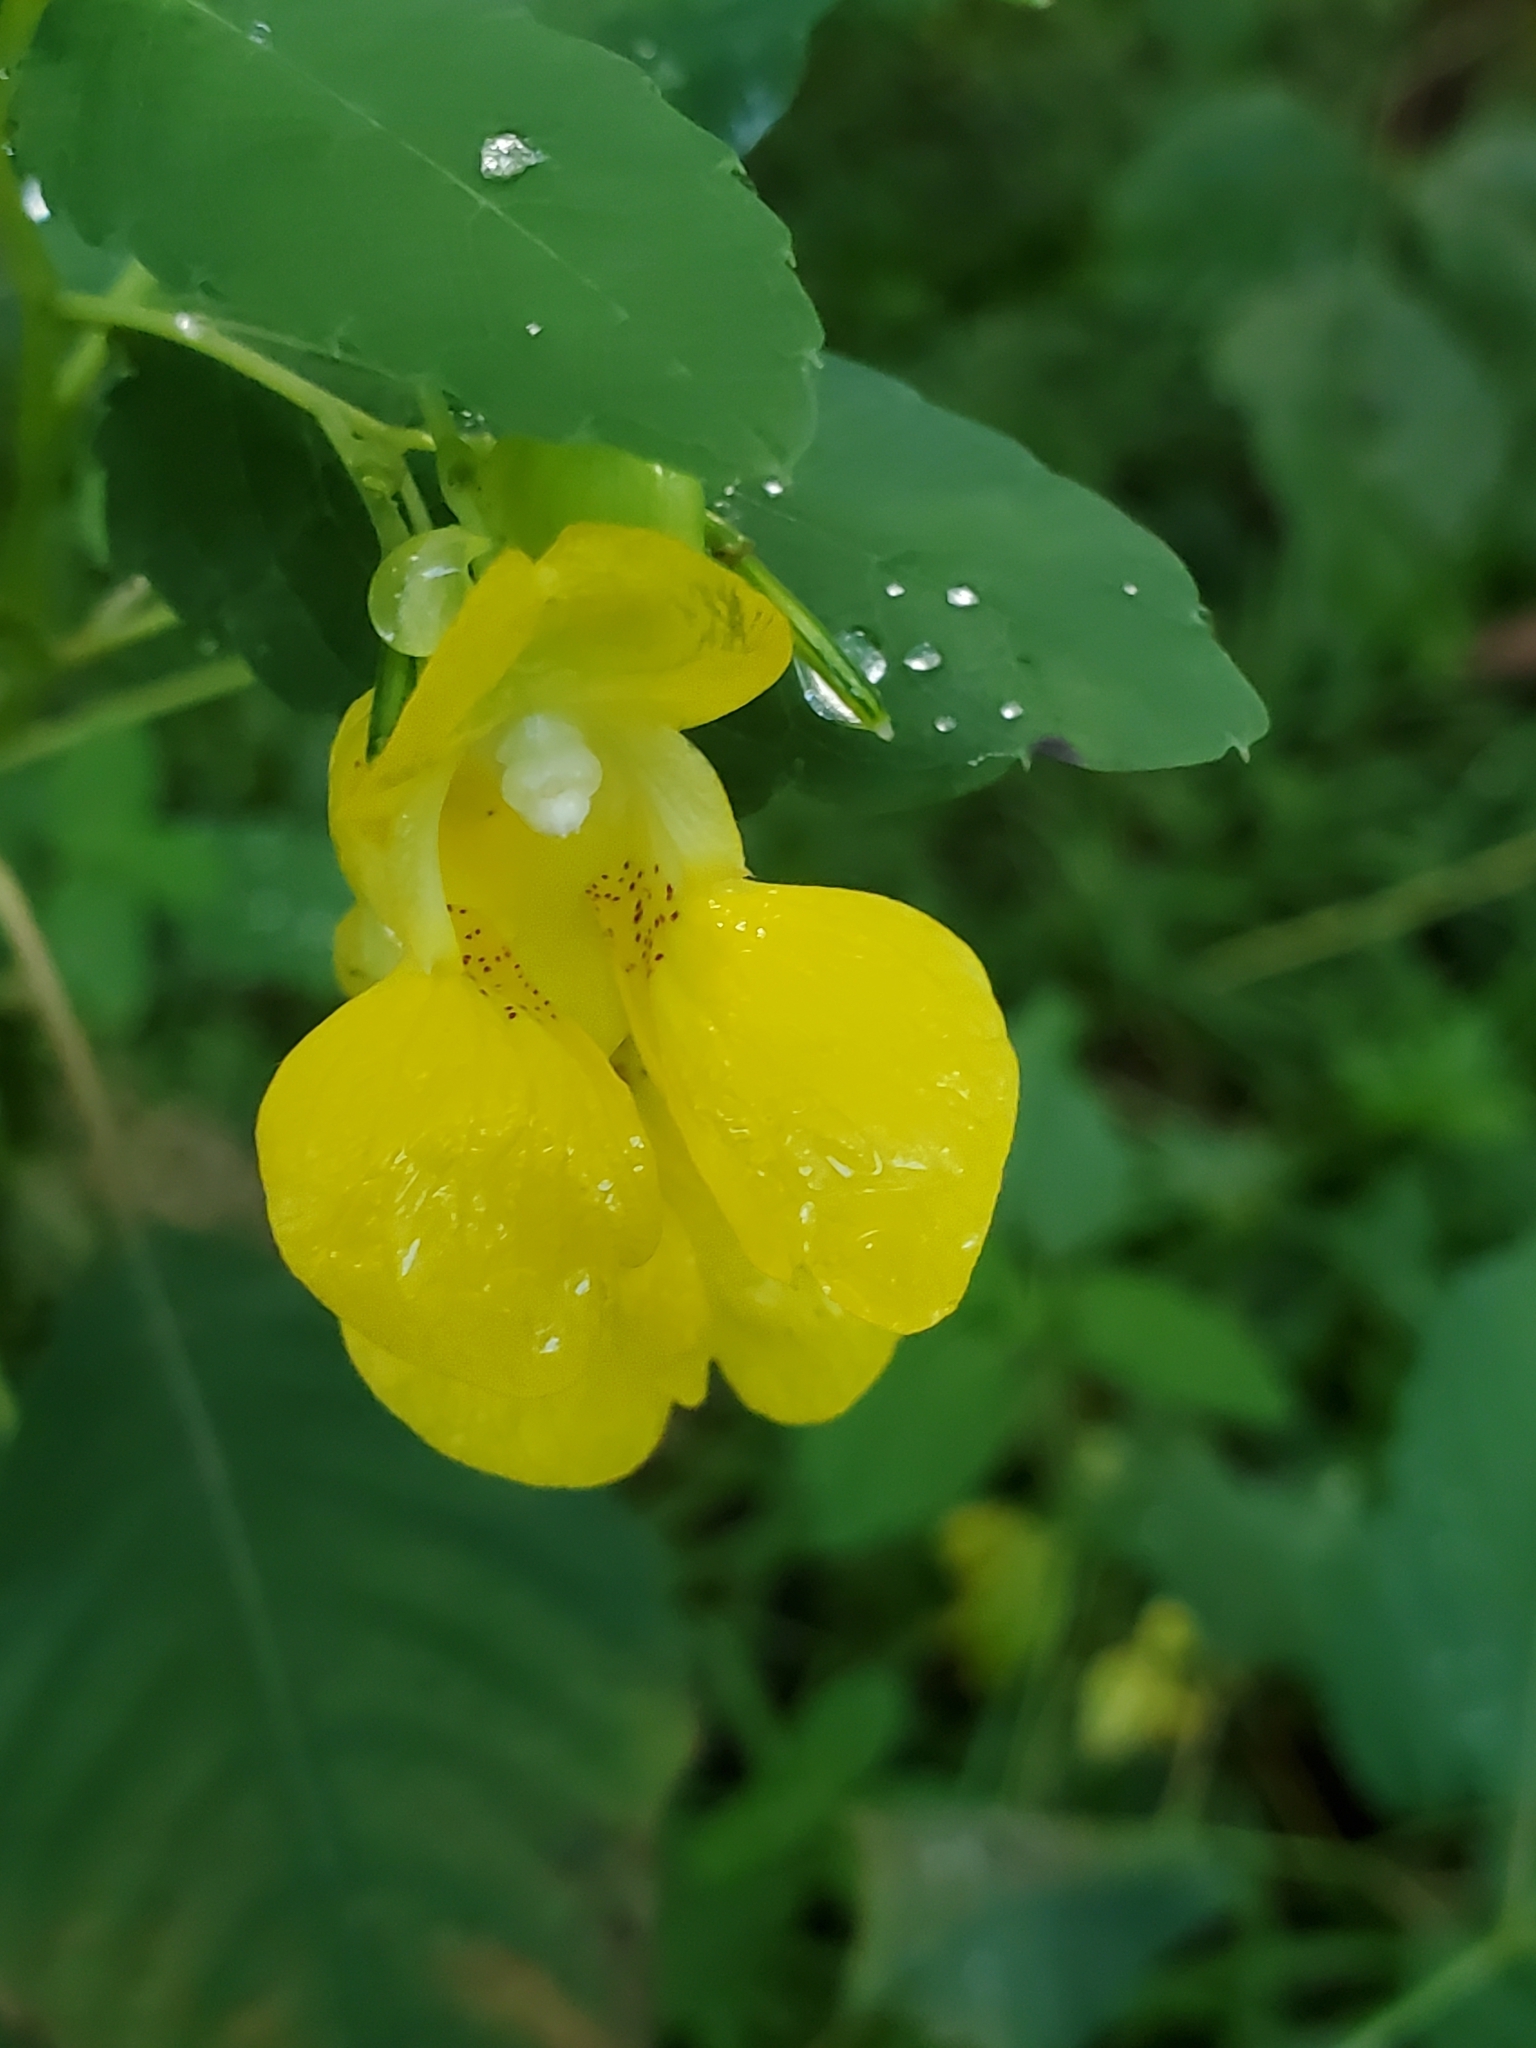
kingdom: Plantae
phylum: Tracheophyta
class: Magnoliopsida
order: Ericales
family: Balsaminaceae
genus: Impatiens
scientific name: Impatiens pallida
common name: Pale snapweed
